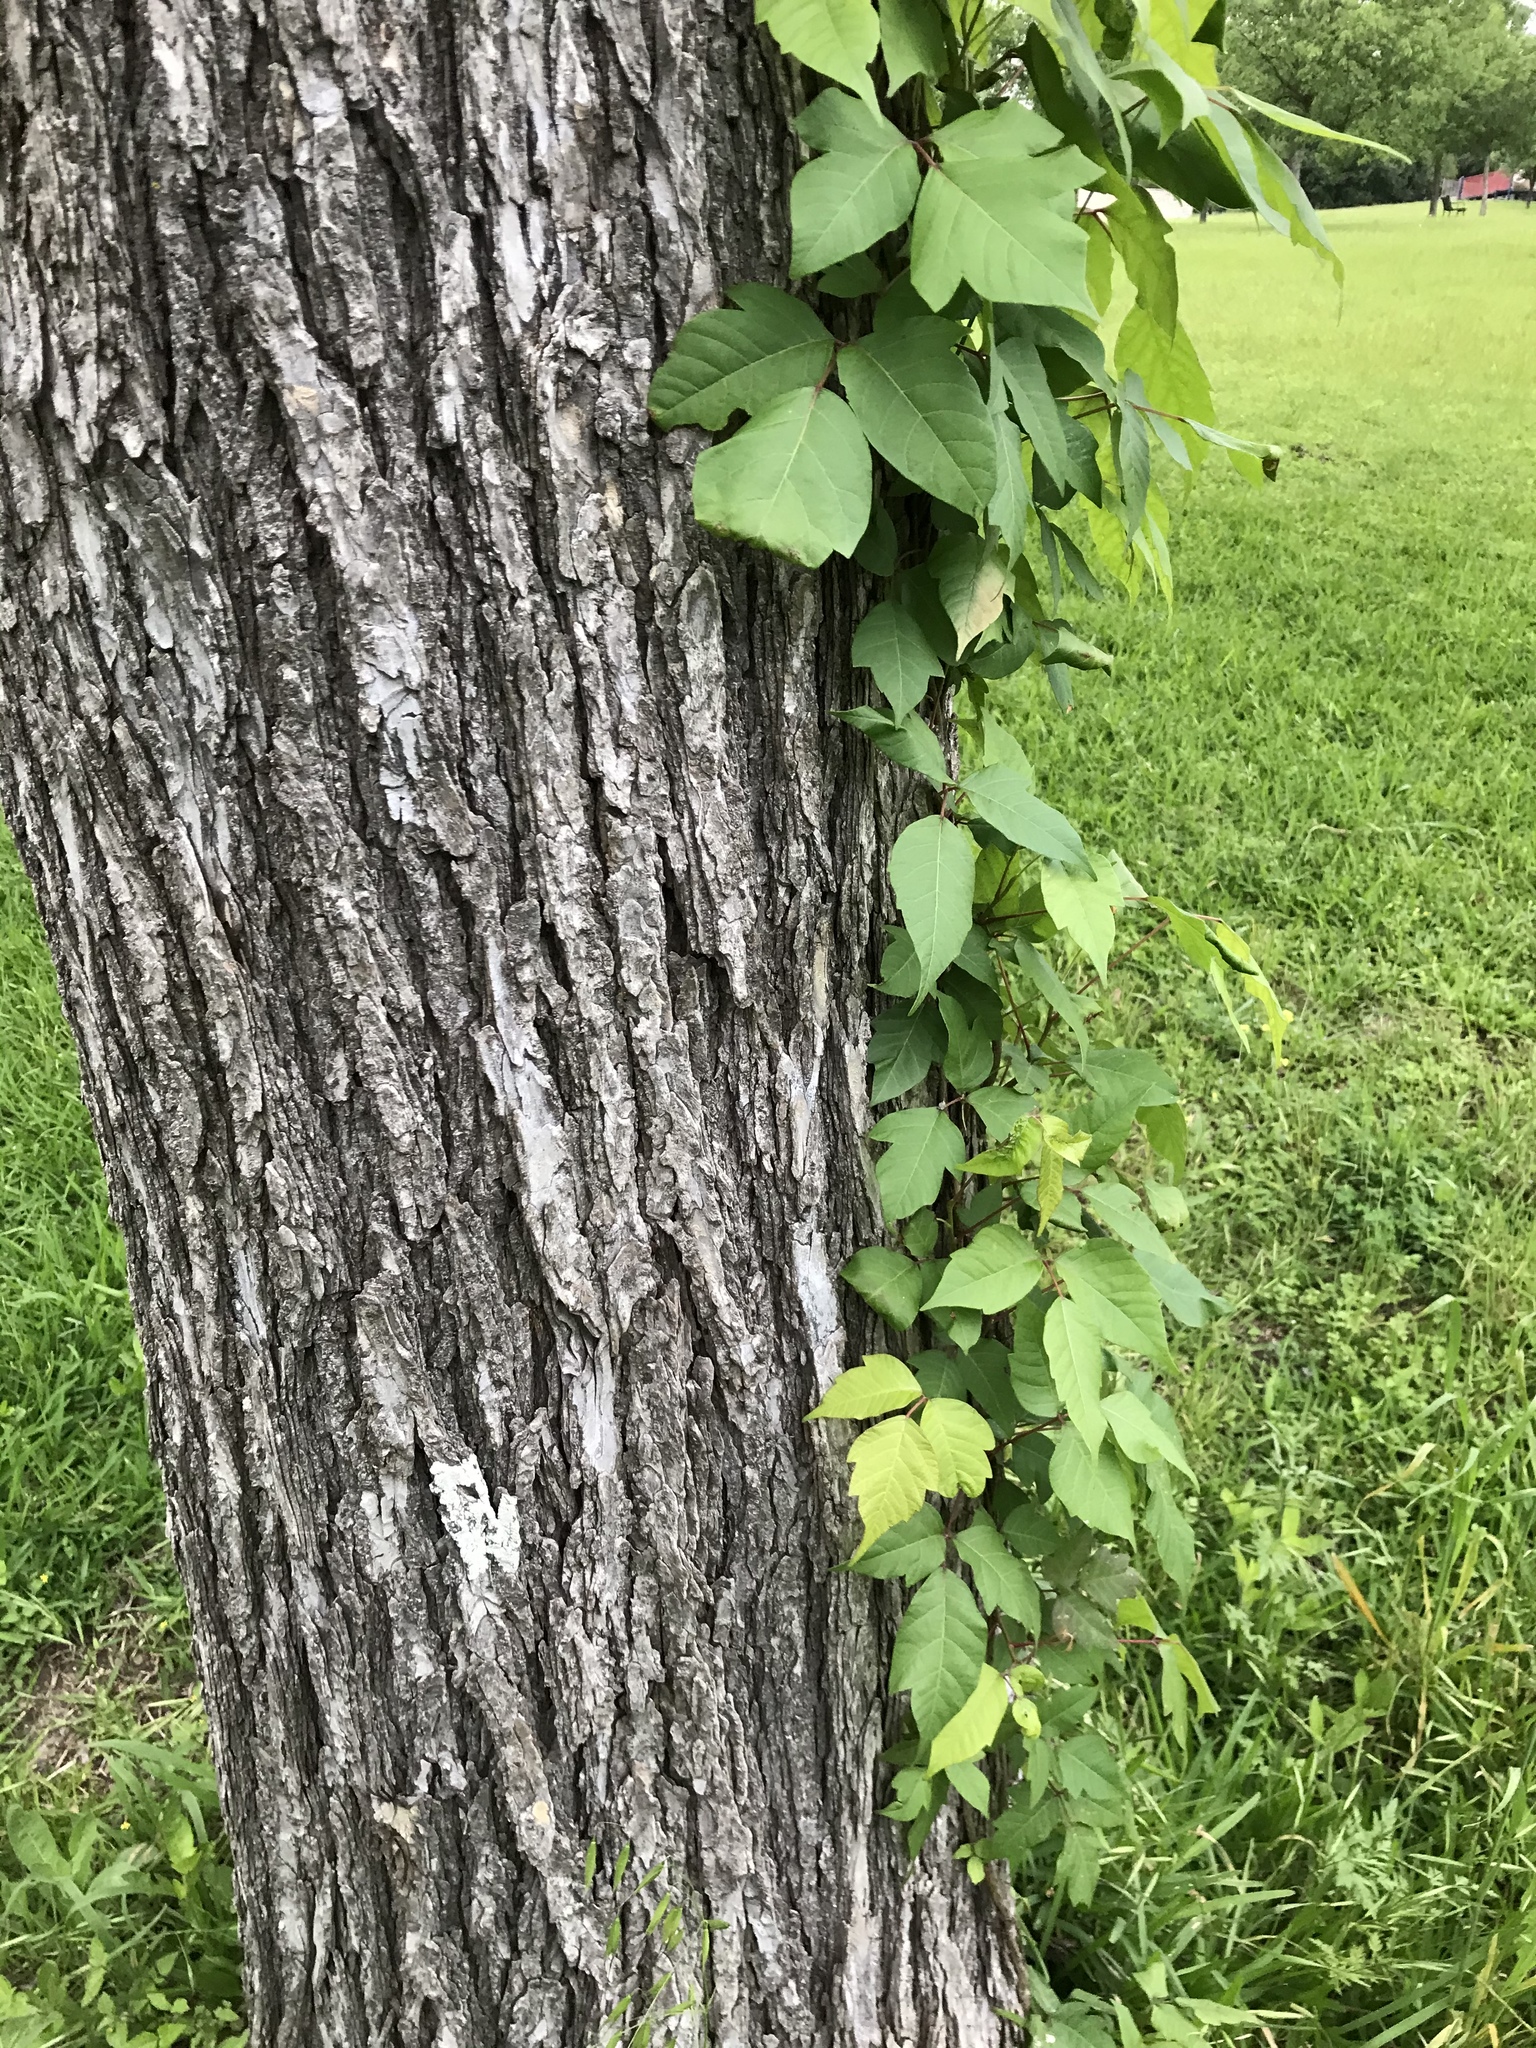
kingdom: Plantae
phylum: Tracheophyta
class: Magnoliopsida
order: Sapindales
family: Anacardiaceae
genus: Toxicodendron
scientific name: Toxicodendron radicans
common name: Poison ivy
